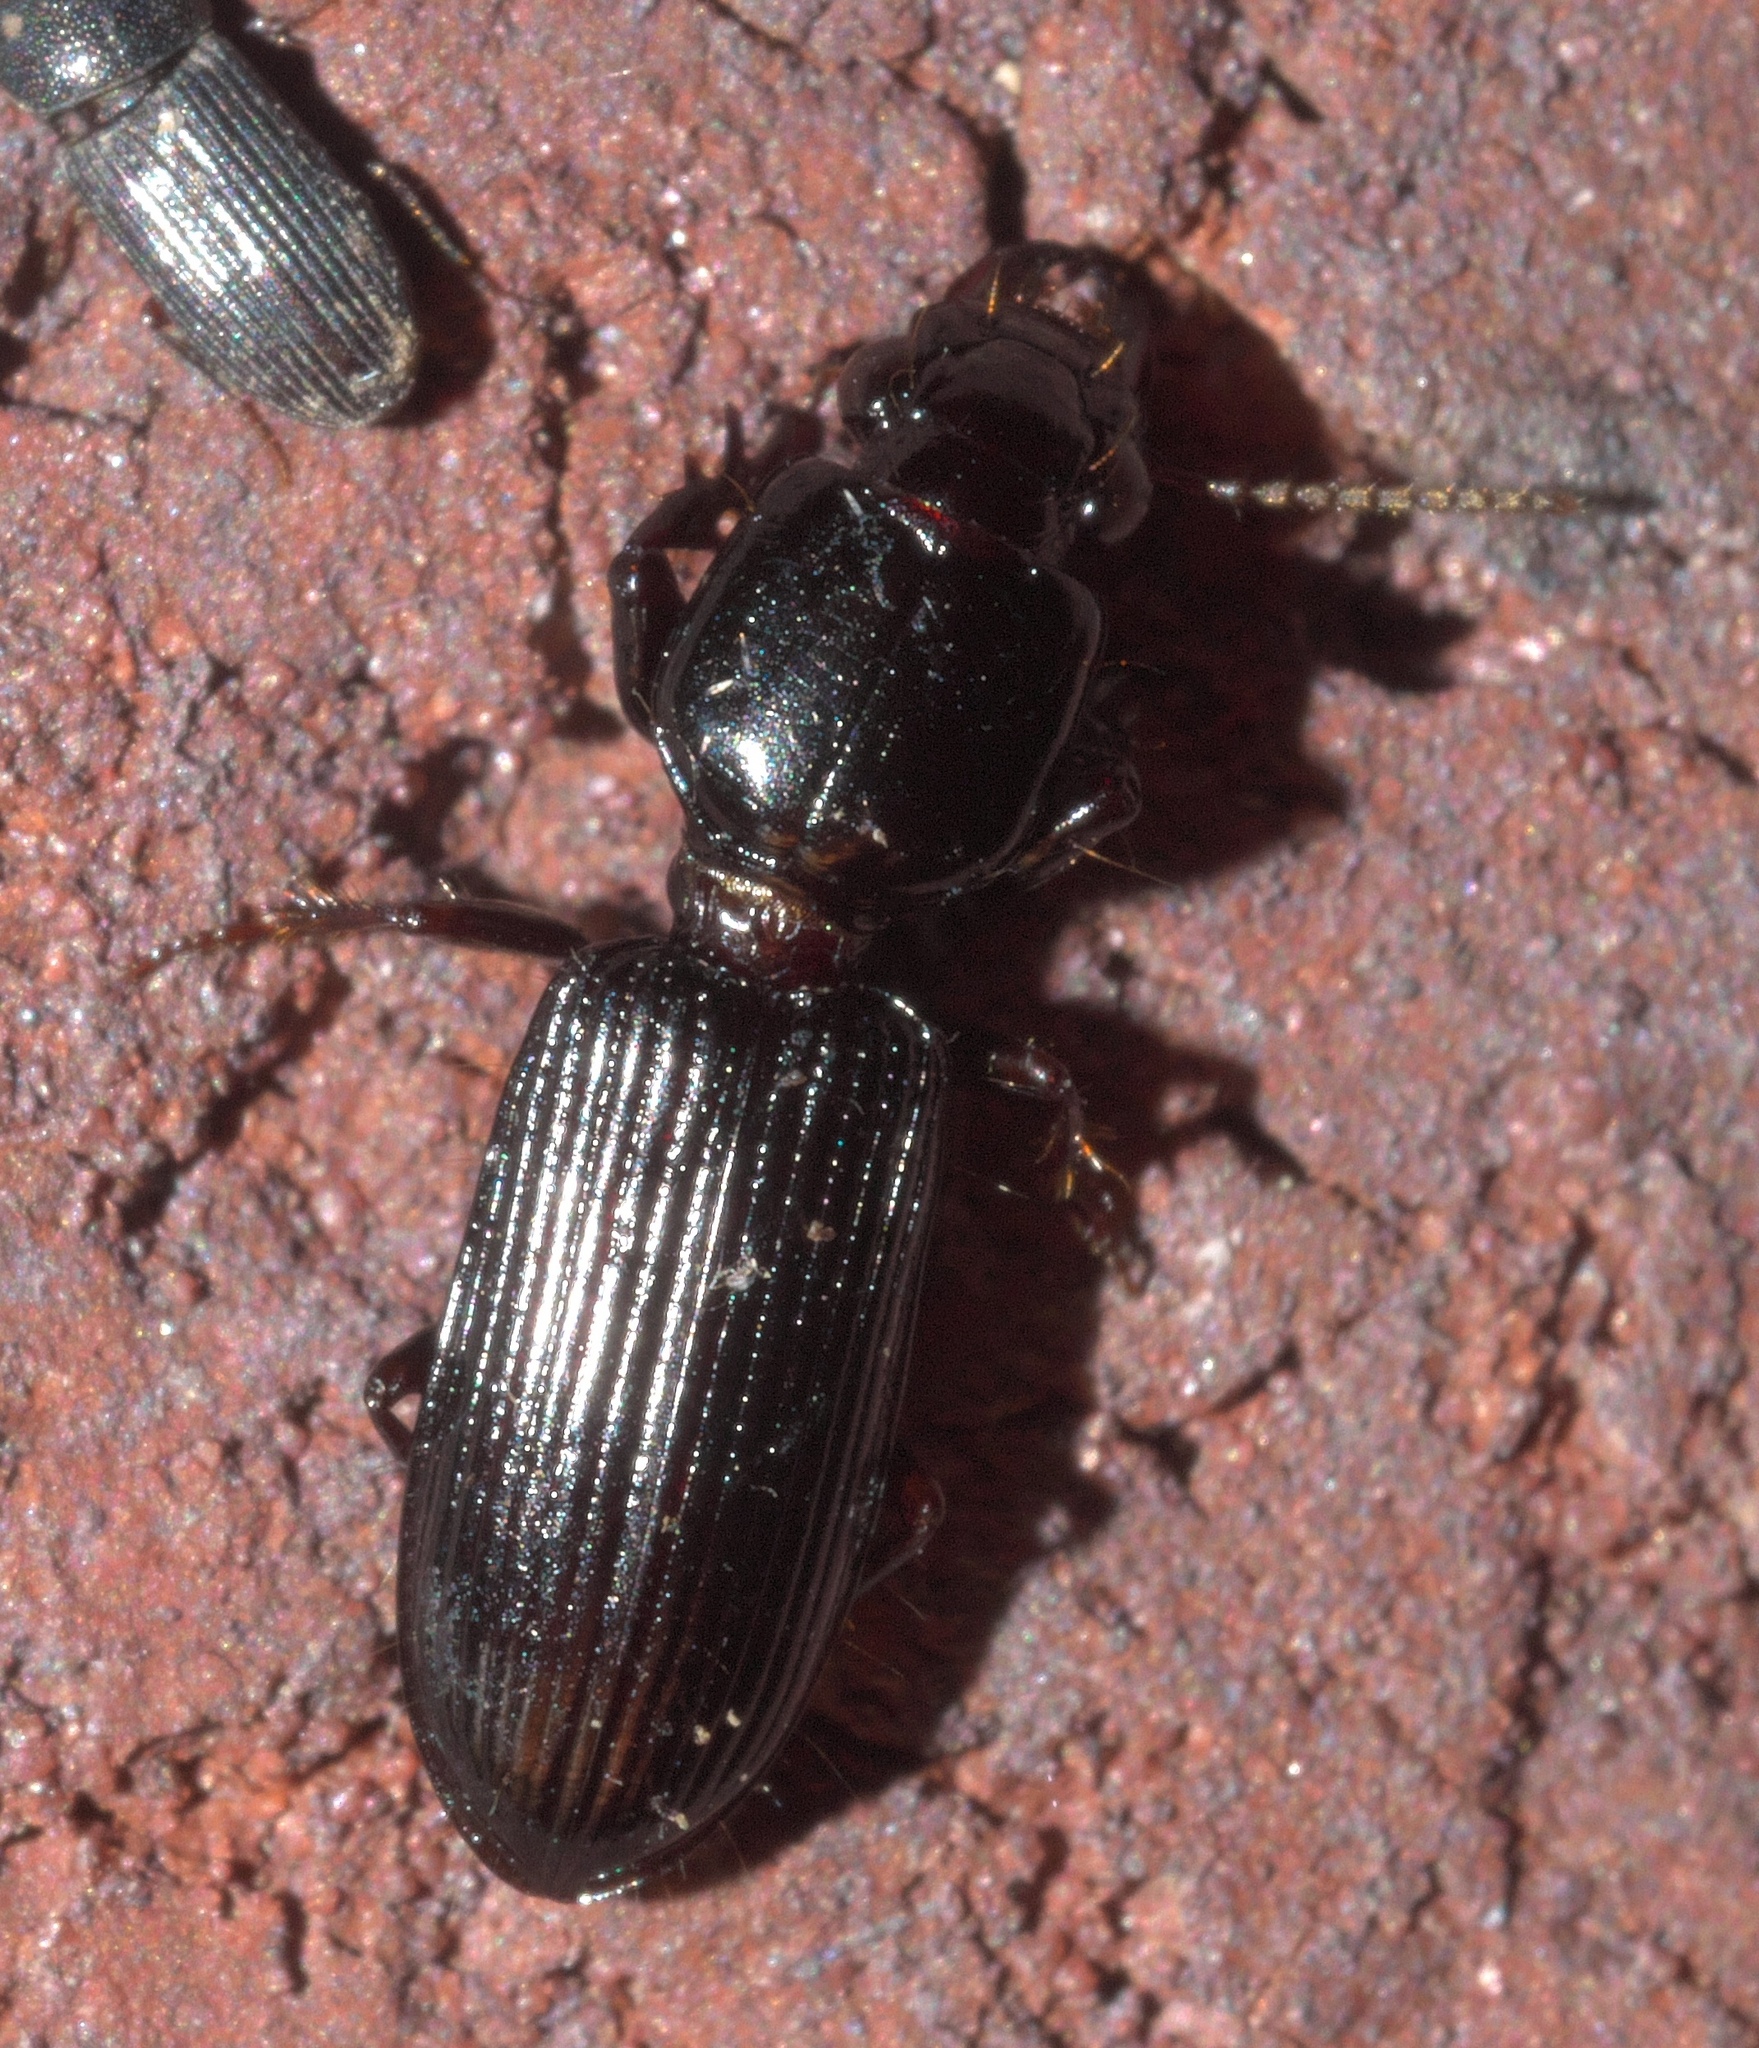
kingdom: Animalia
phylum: Arthropoda
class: Insecta
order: Coleoptera
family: Carabidae
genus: Semiclivina
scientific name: Semiclivina dentipes
